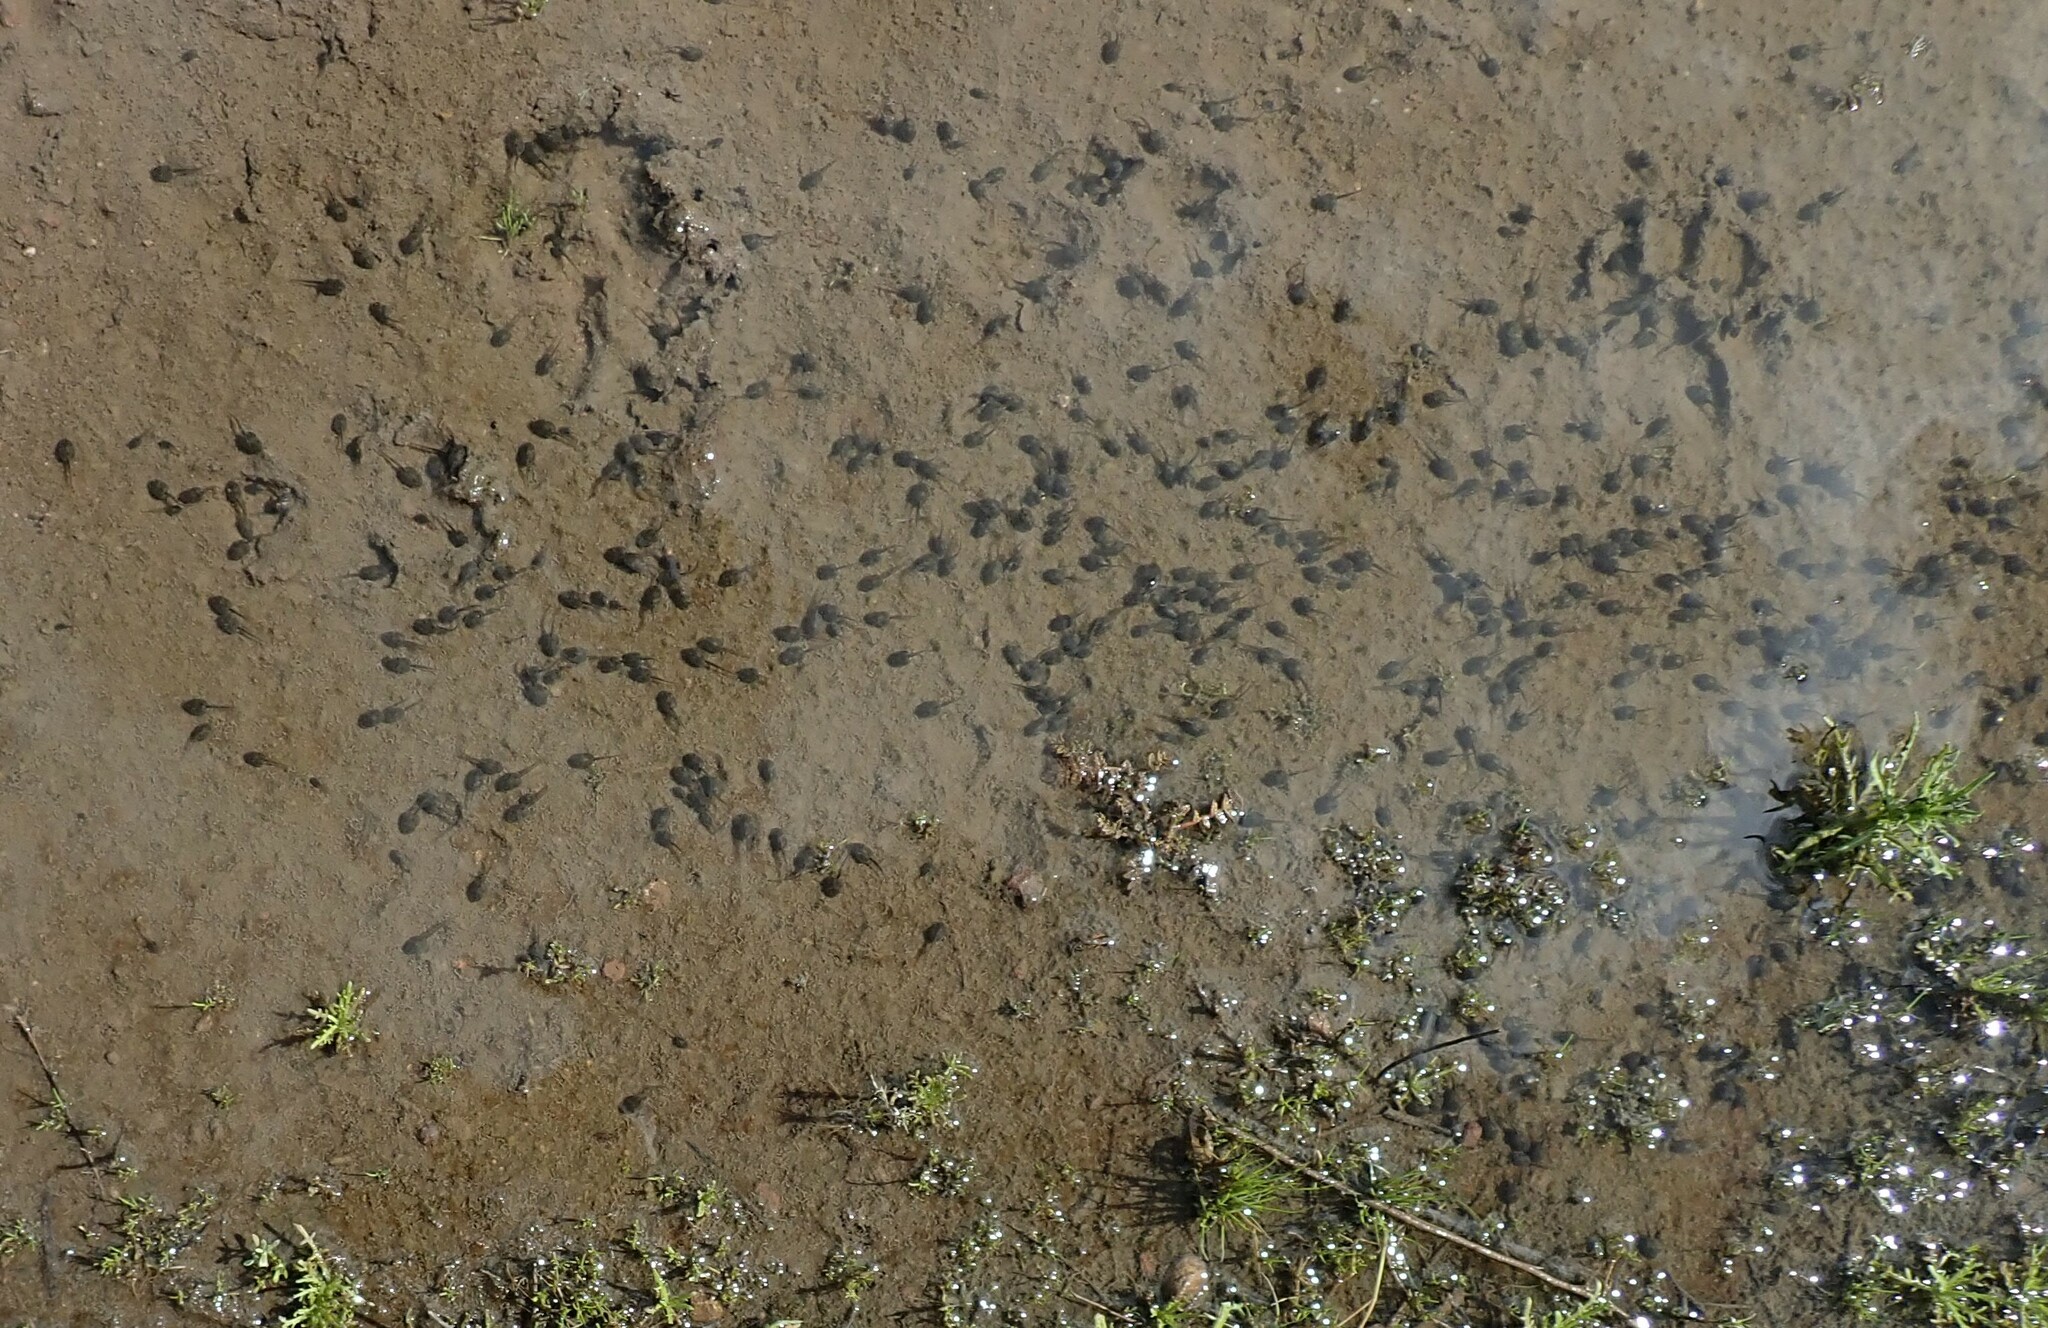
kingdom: Animalia
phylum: Chordata
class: Amphibia
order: Anura
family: Scaphiopodidae
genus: Spea
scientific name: Spea hammondii
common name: Western spadefoot toad
